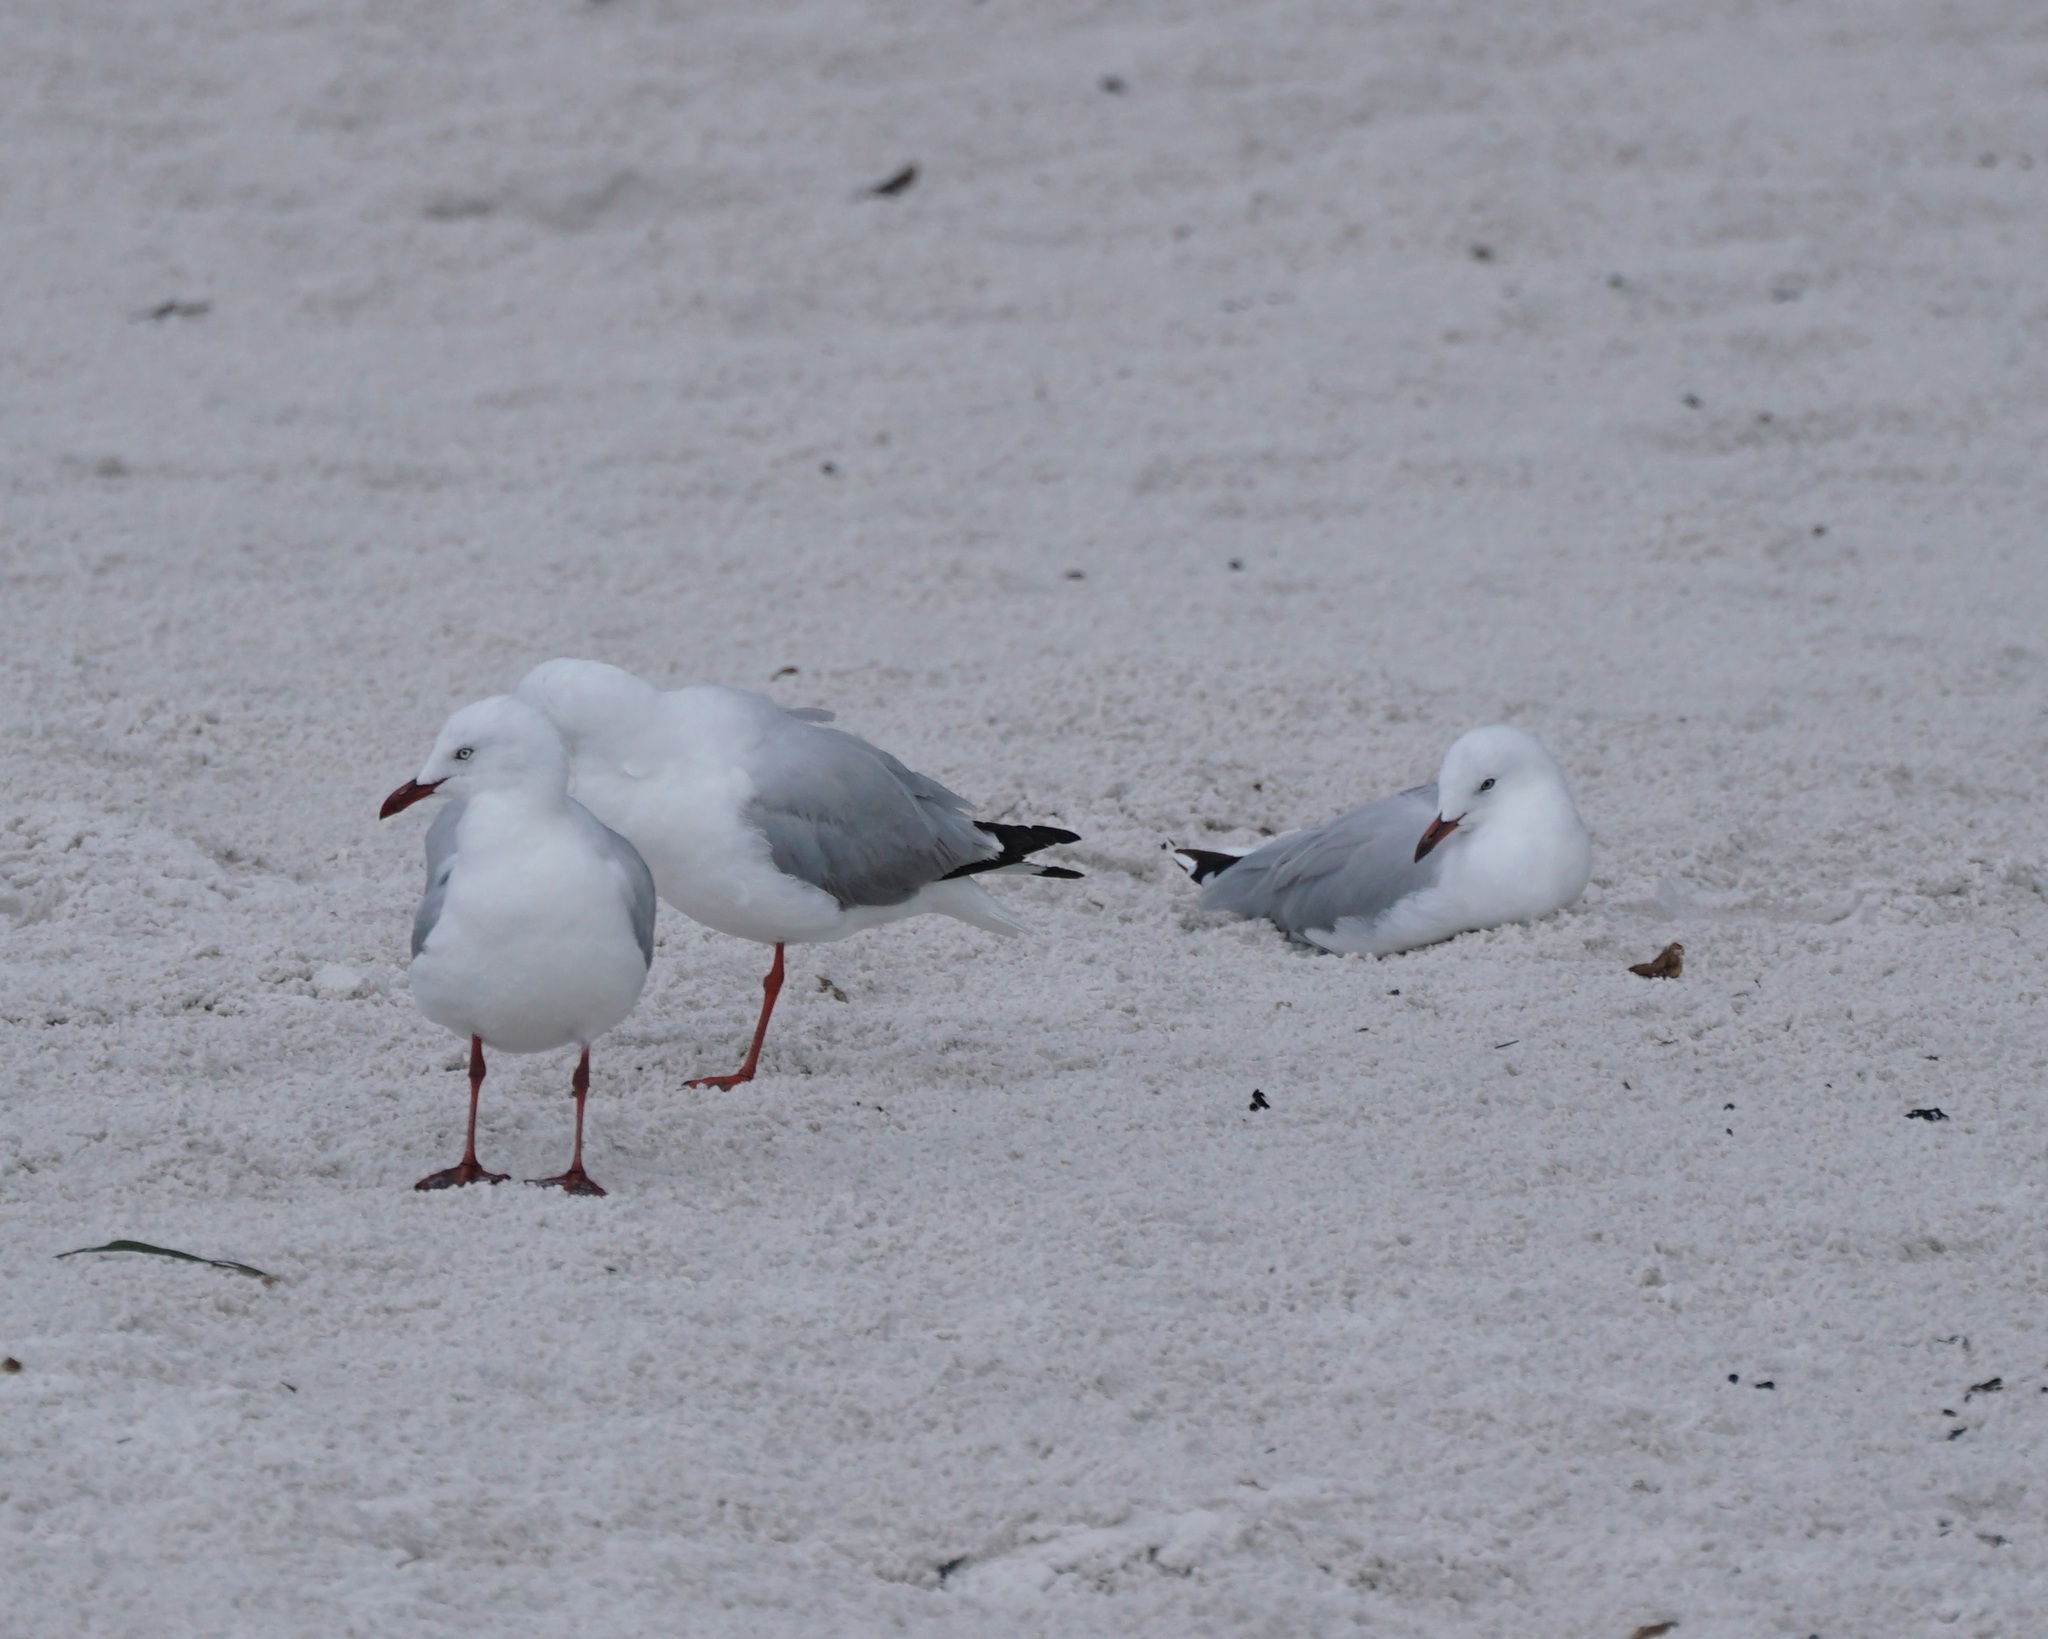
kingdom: Animalia
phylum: Chordata
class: Aves
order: Charadriiformes
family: Laridae
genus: Chroicocephalus
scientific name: Chroicocephalus novaehollandiae
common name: Silver gull
